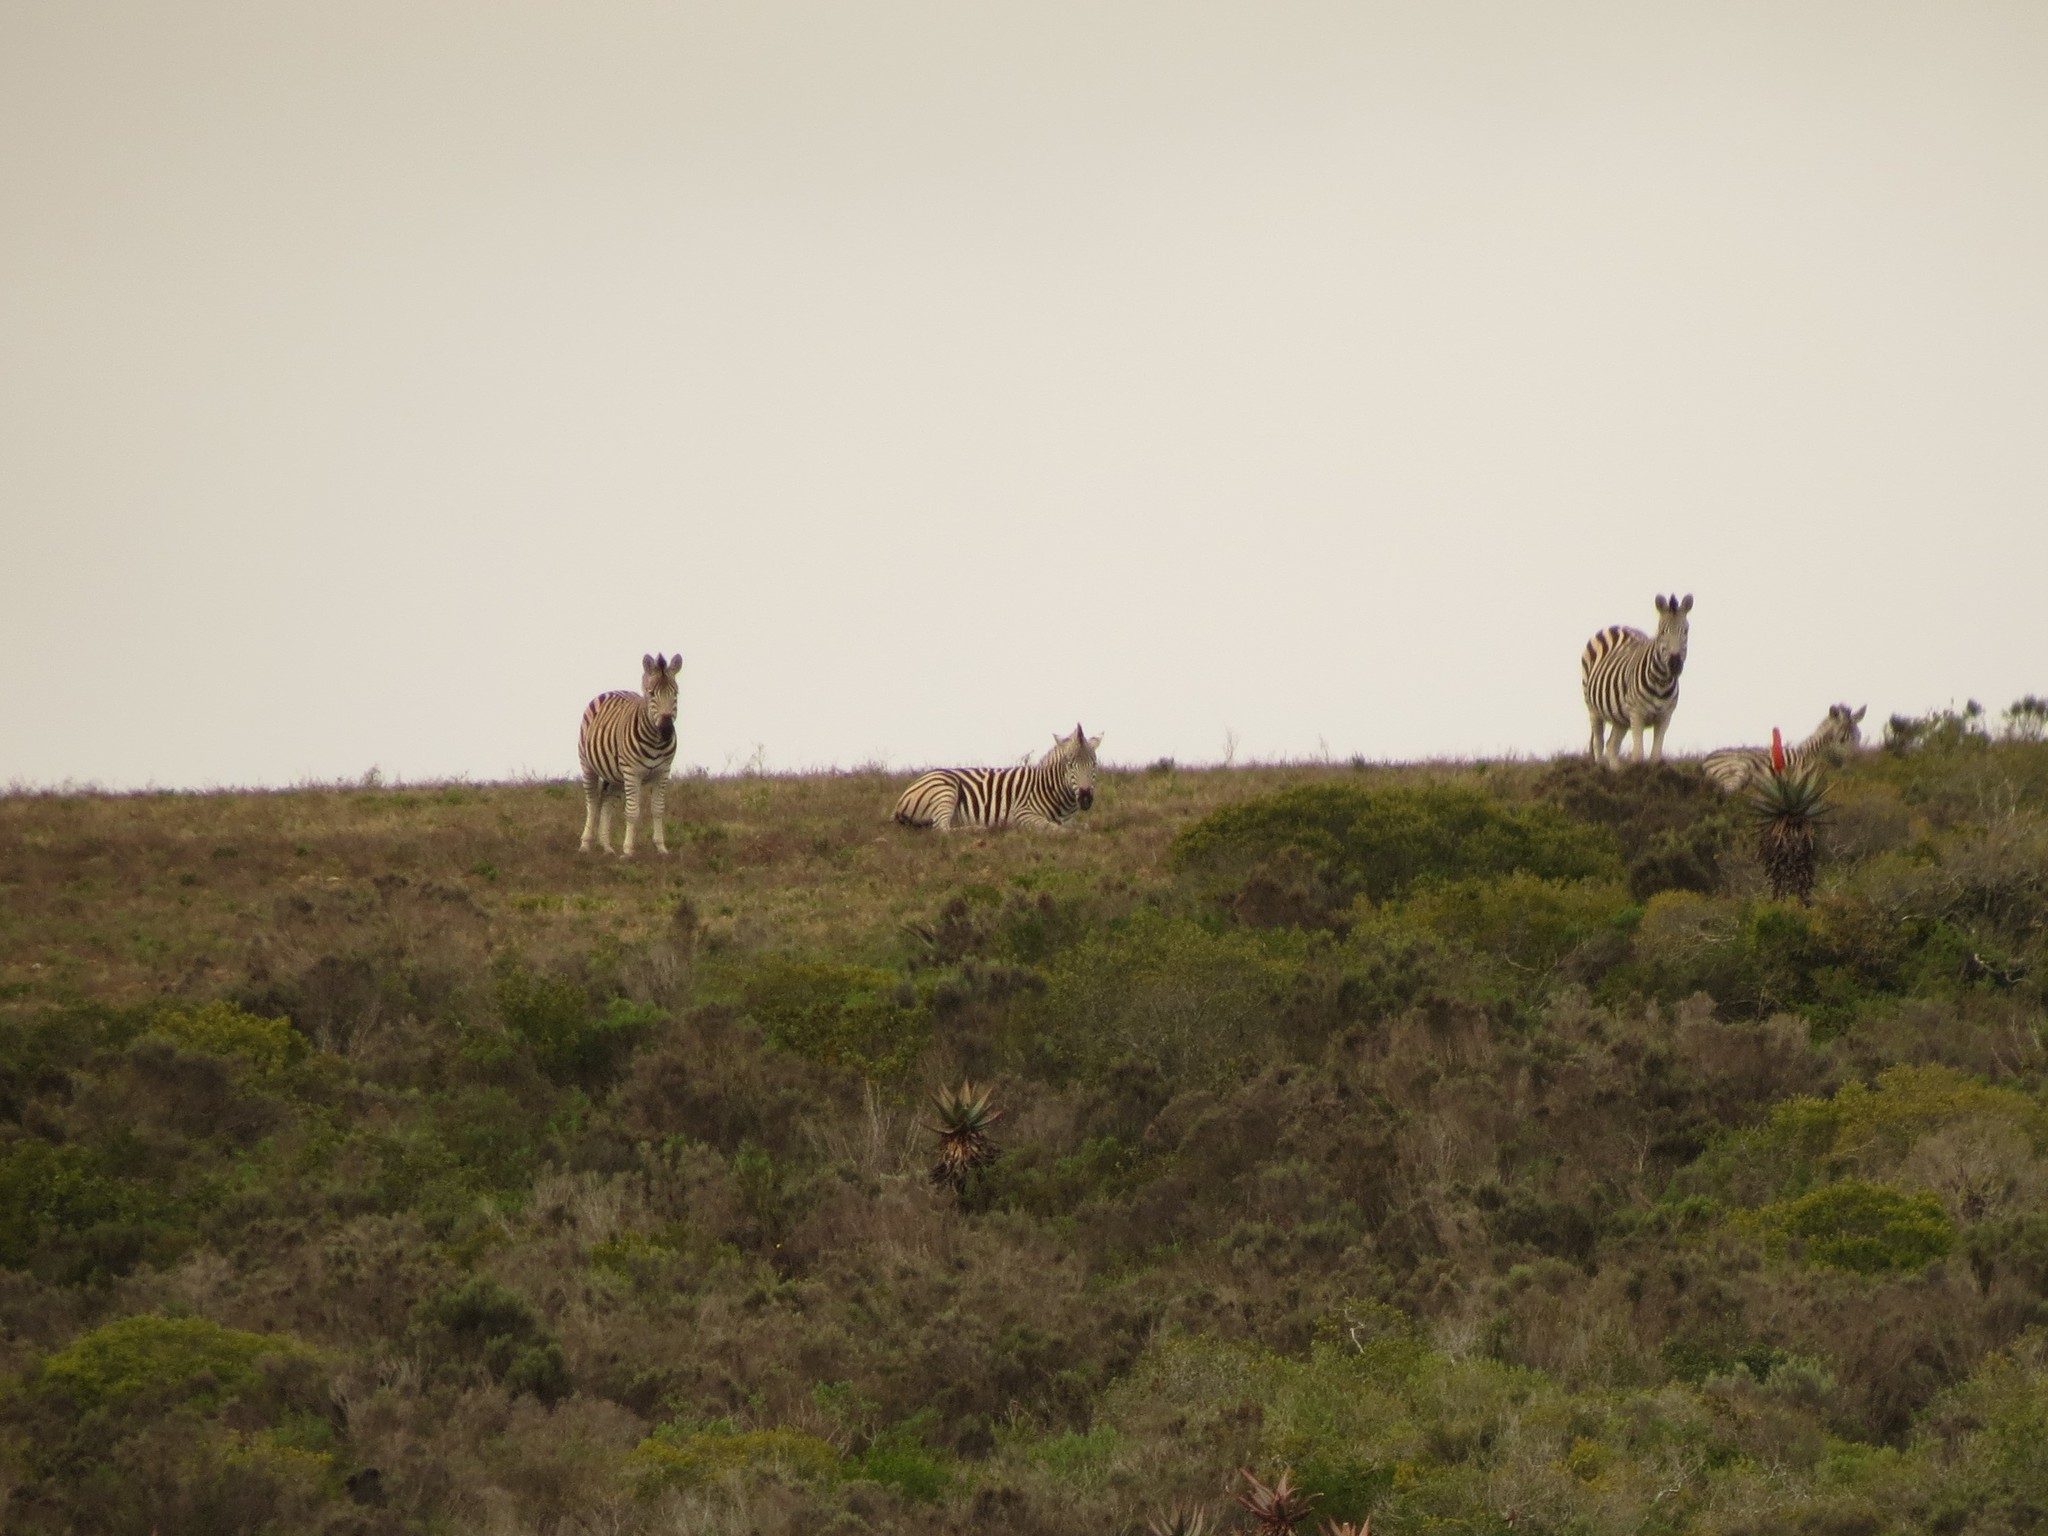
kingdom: Animalia
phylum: Chordata
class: Mammalia
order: Perissodactyla
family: Equidae
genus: Equus
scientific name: Equus quagga
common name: Plains zebra
